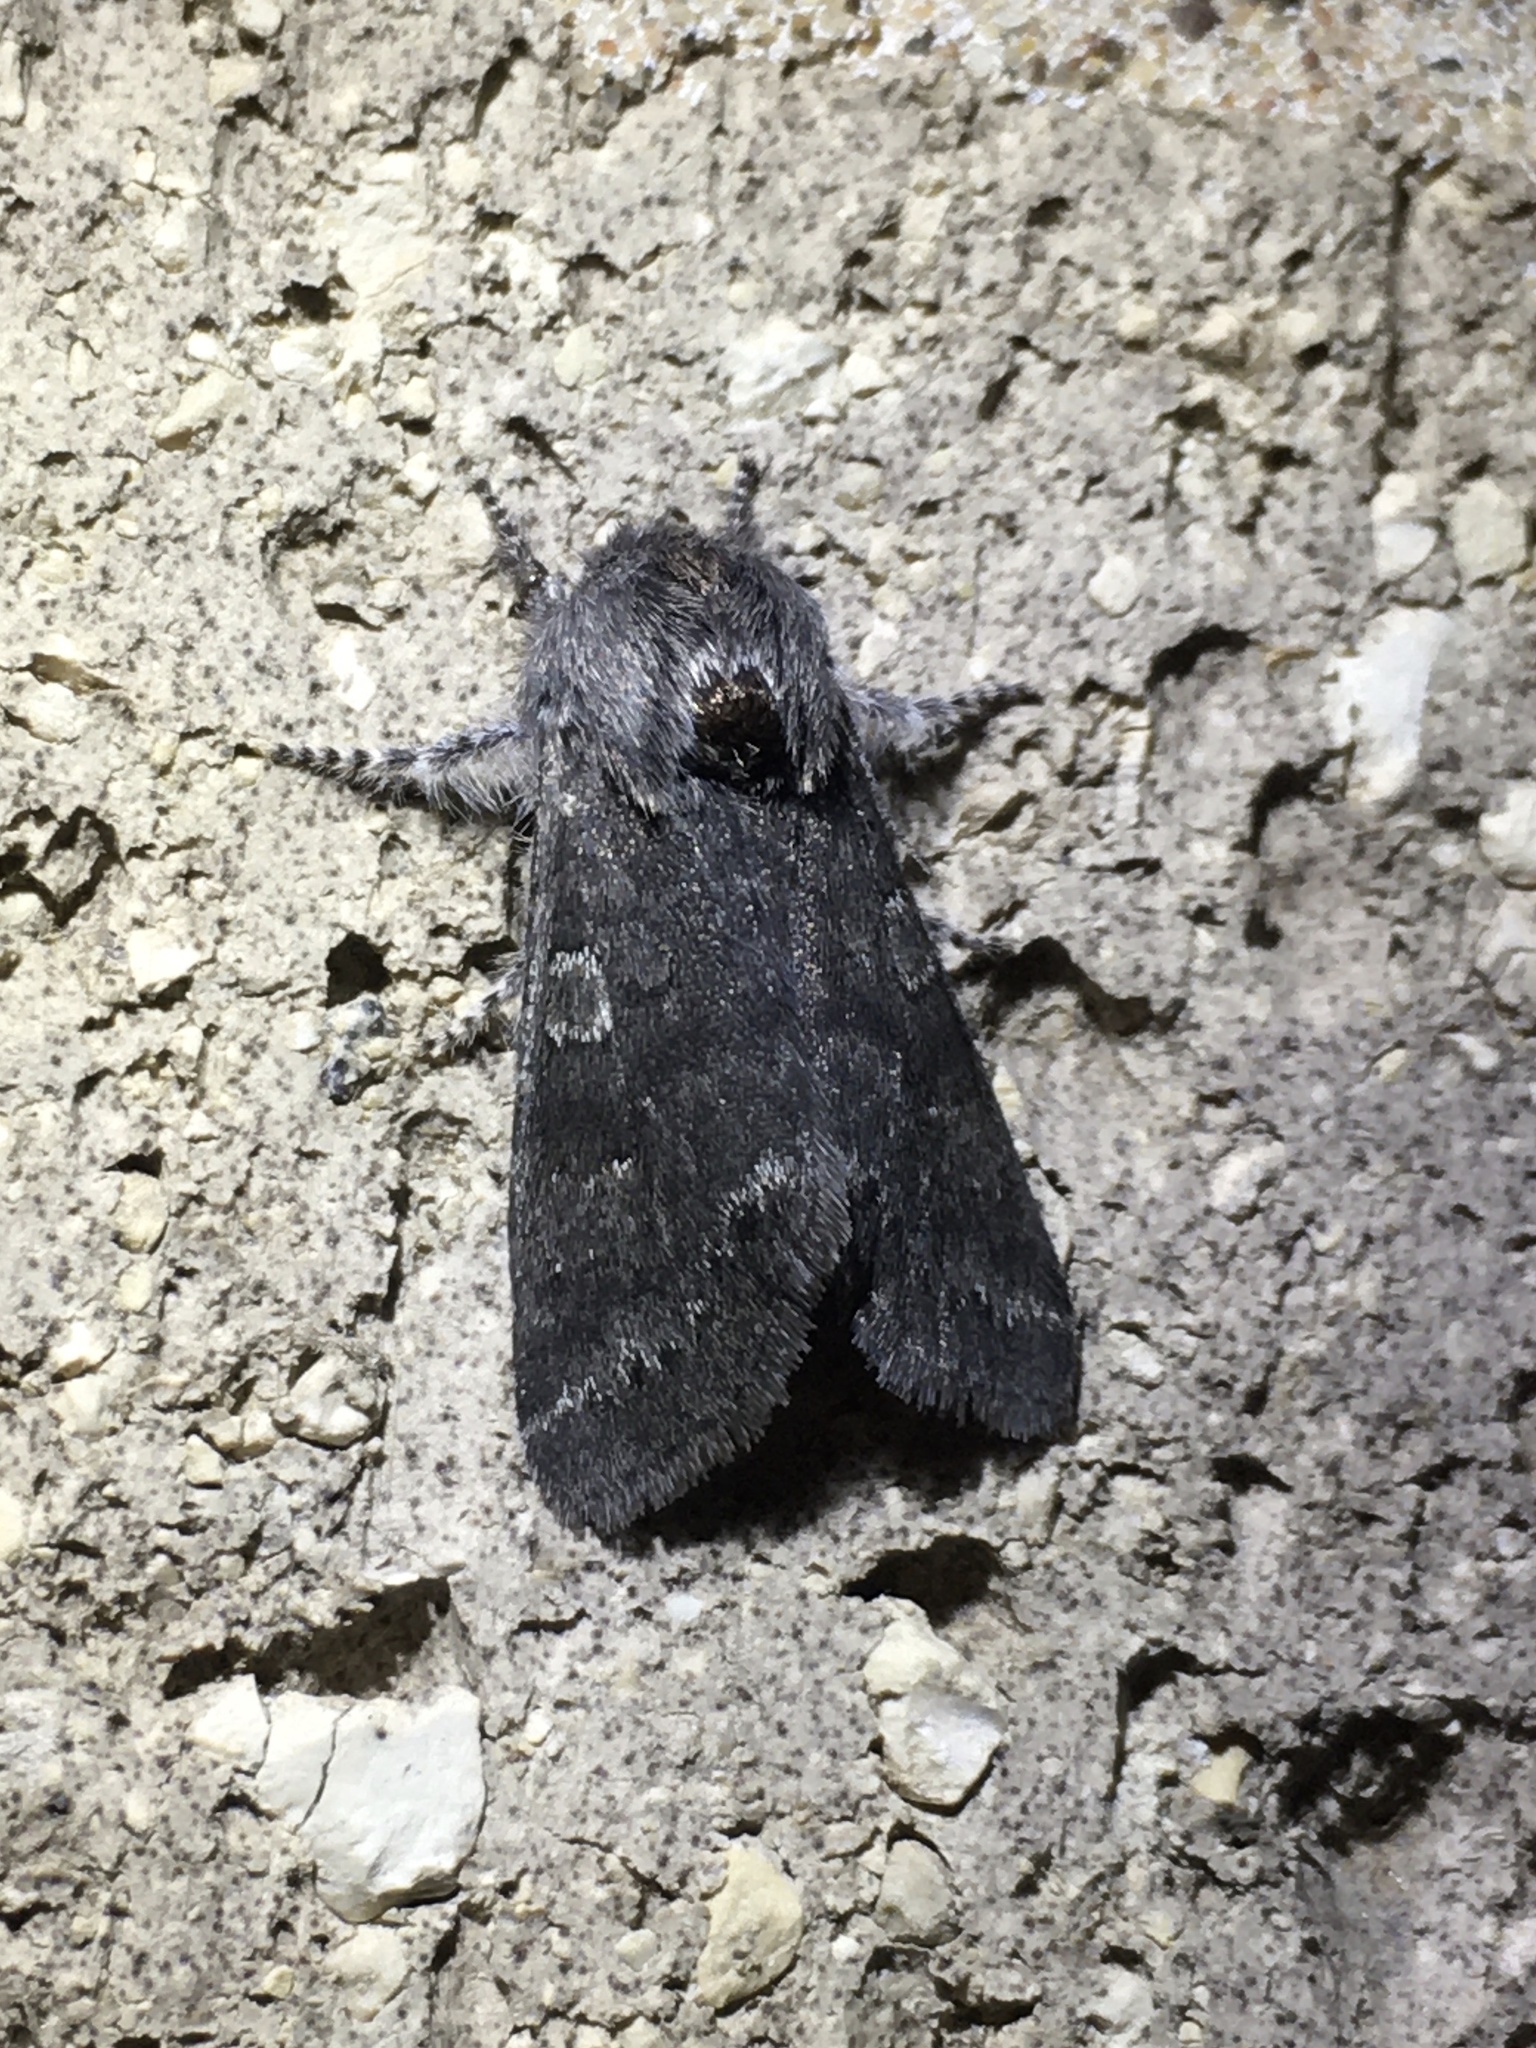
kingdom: Animalia
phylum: Arthropoda
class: Insecta
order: Lepidoptera
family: Noctuidae
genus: Psaphida
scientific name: Psaphida rolandi
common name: Roland's sallow
